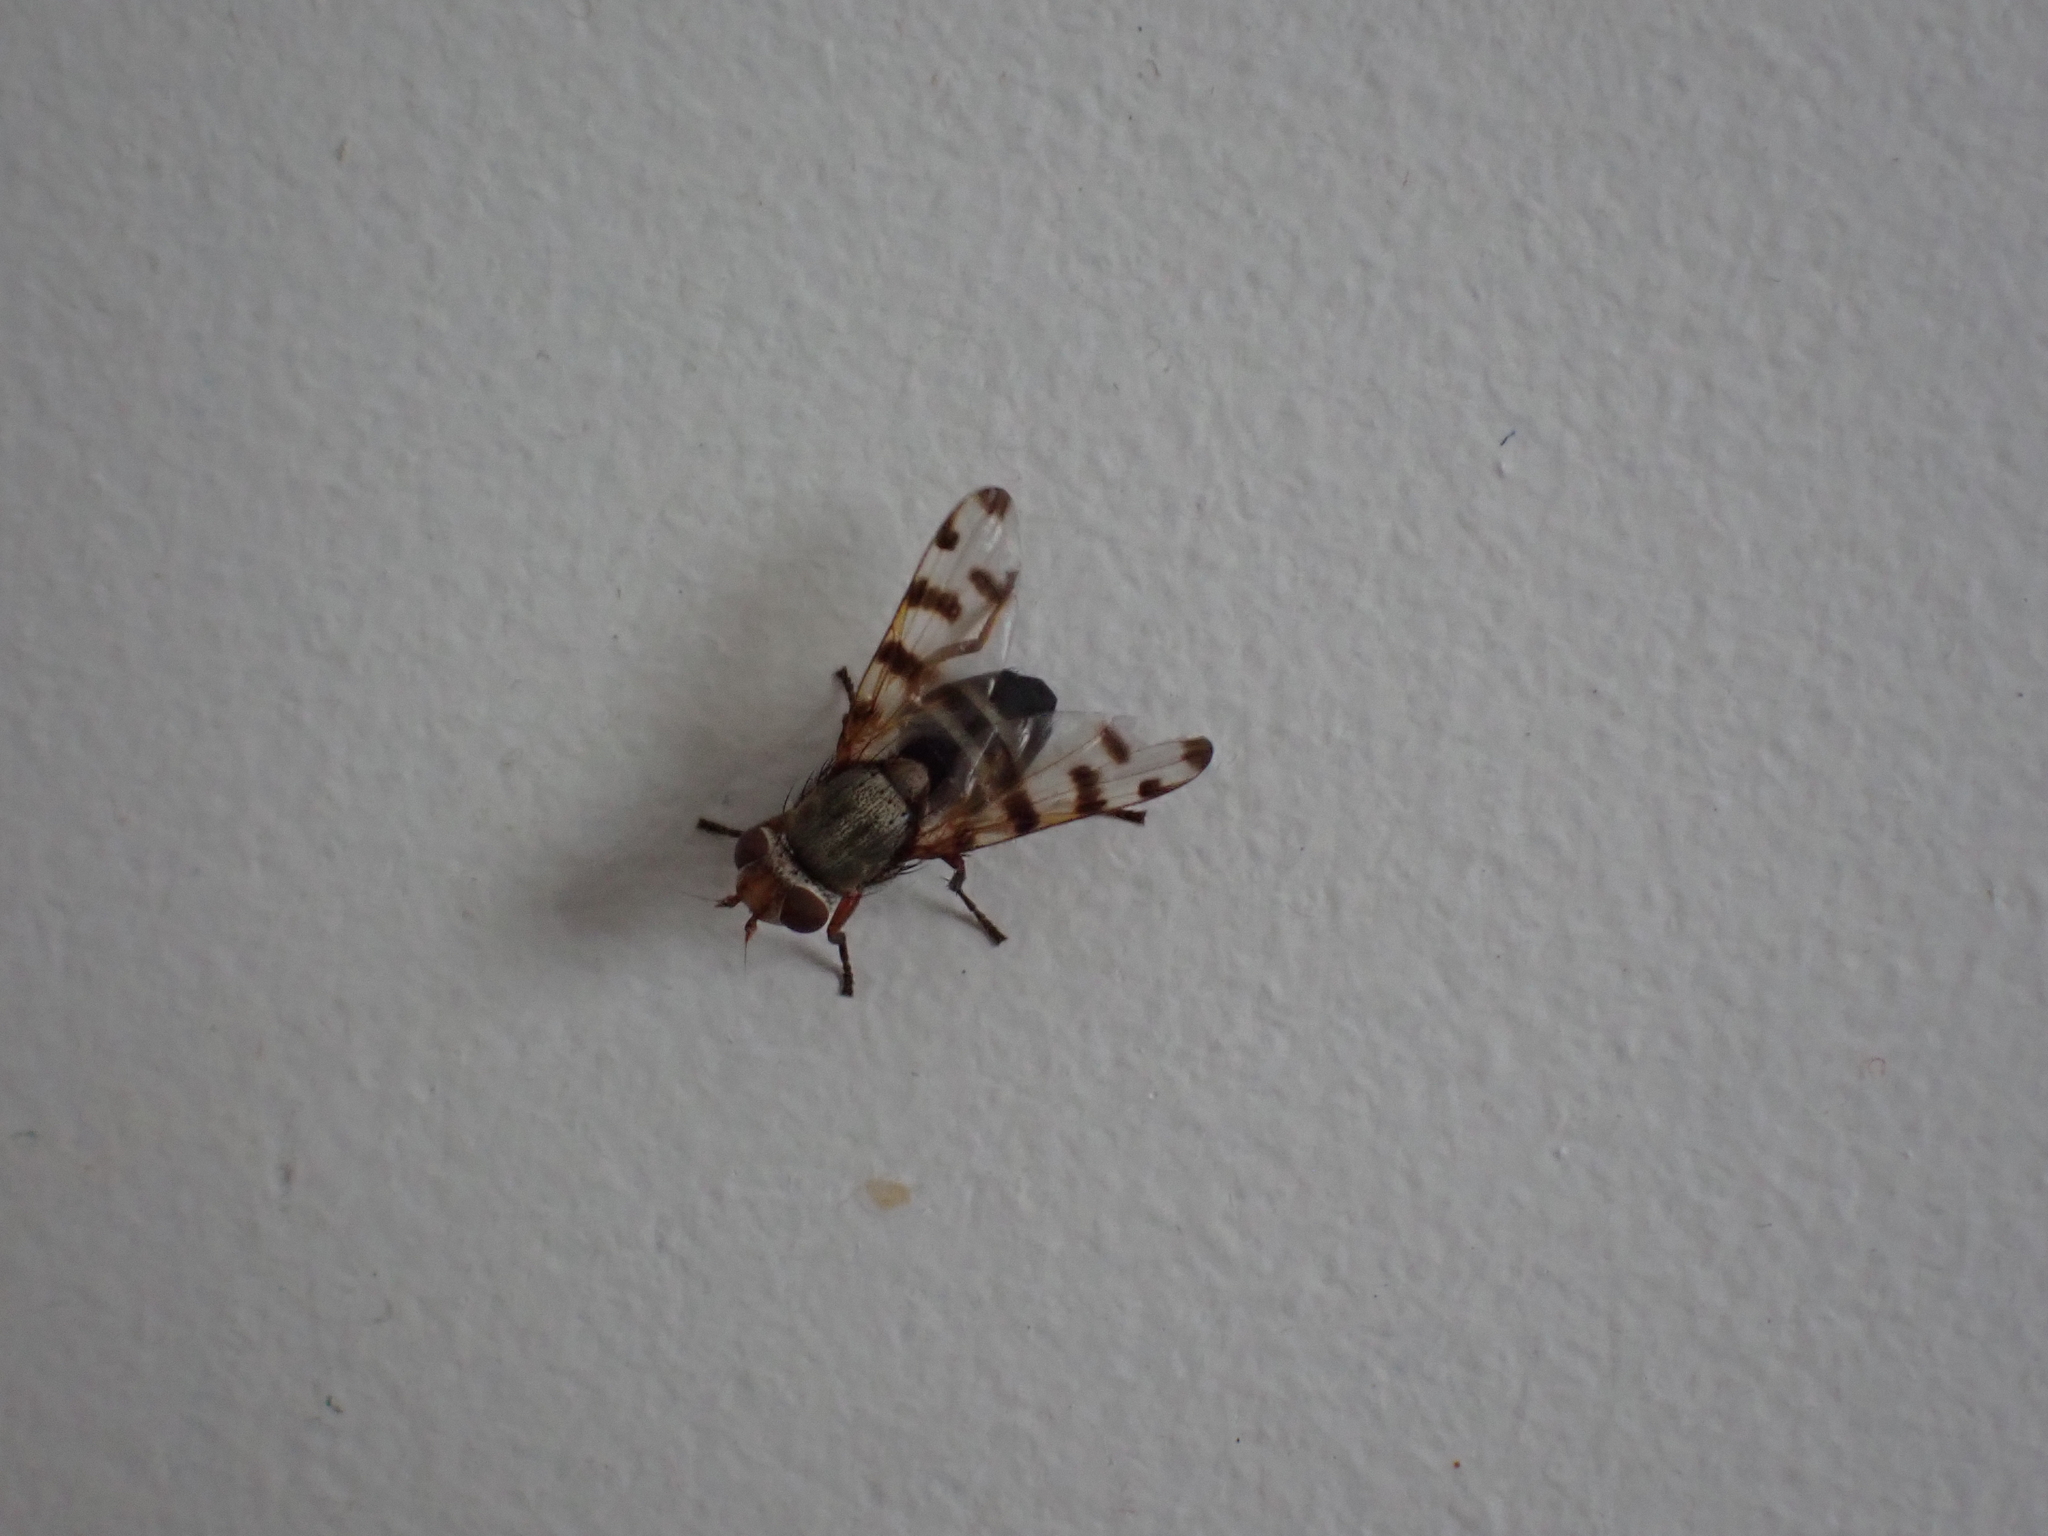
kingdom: Animalia
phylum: Arthropoda
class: Insecta
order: Diptera
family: Ulidiidae
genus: Ceroxys
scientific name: Ceroxys latiusculus
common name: Picture-winged fly
